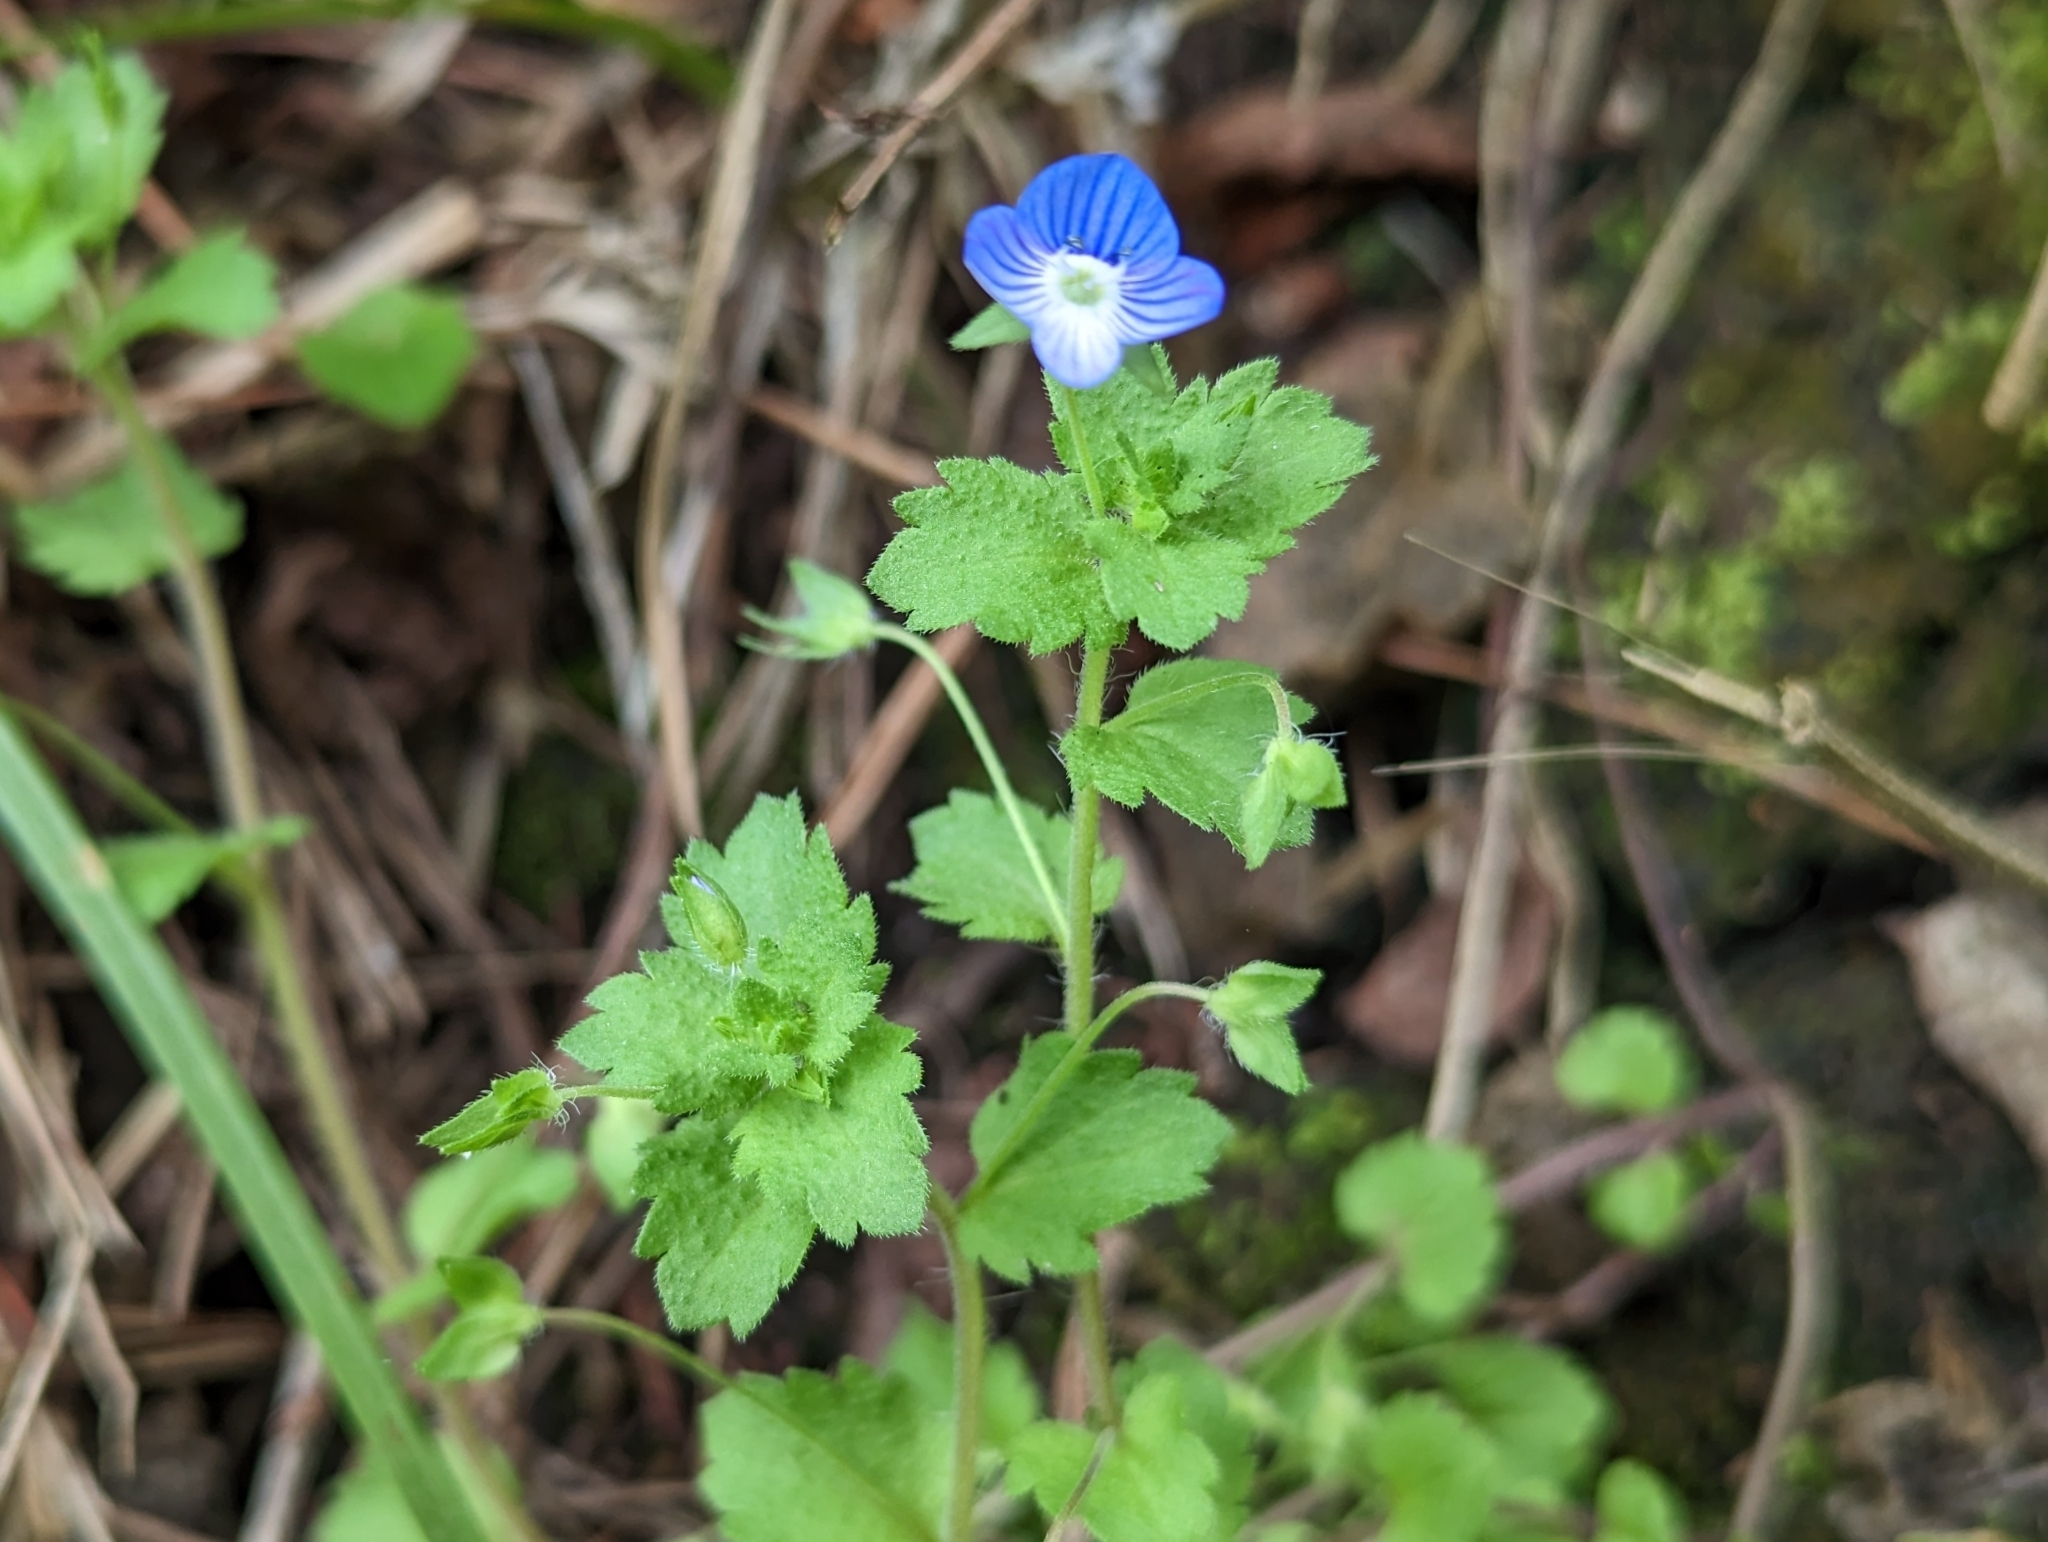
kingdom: Plantae
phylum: Tracheophyta
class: Magnoliopsida
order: Lamiales
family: Plantaginaceae
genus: Veronica
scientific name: Veronica persica
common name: Common field-speedwell
